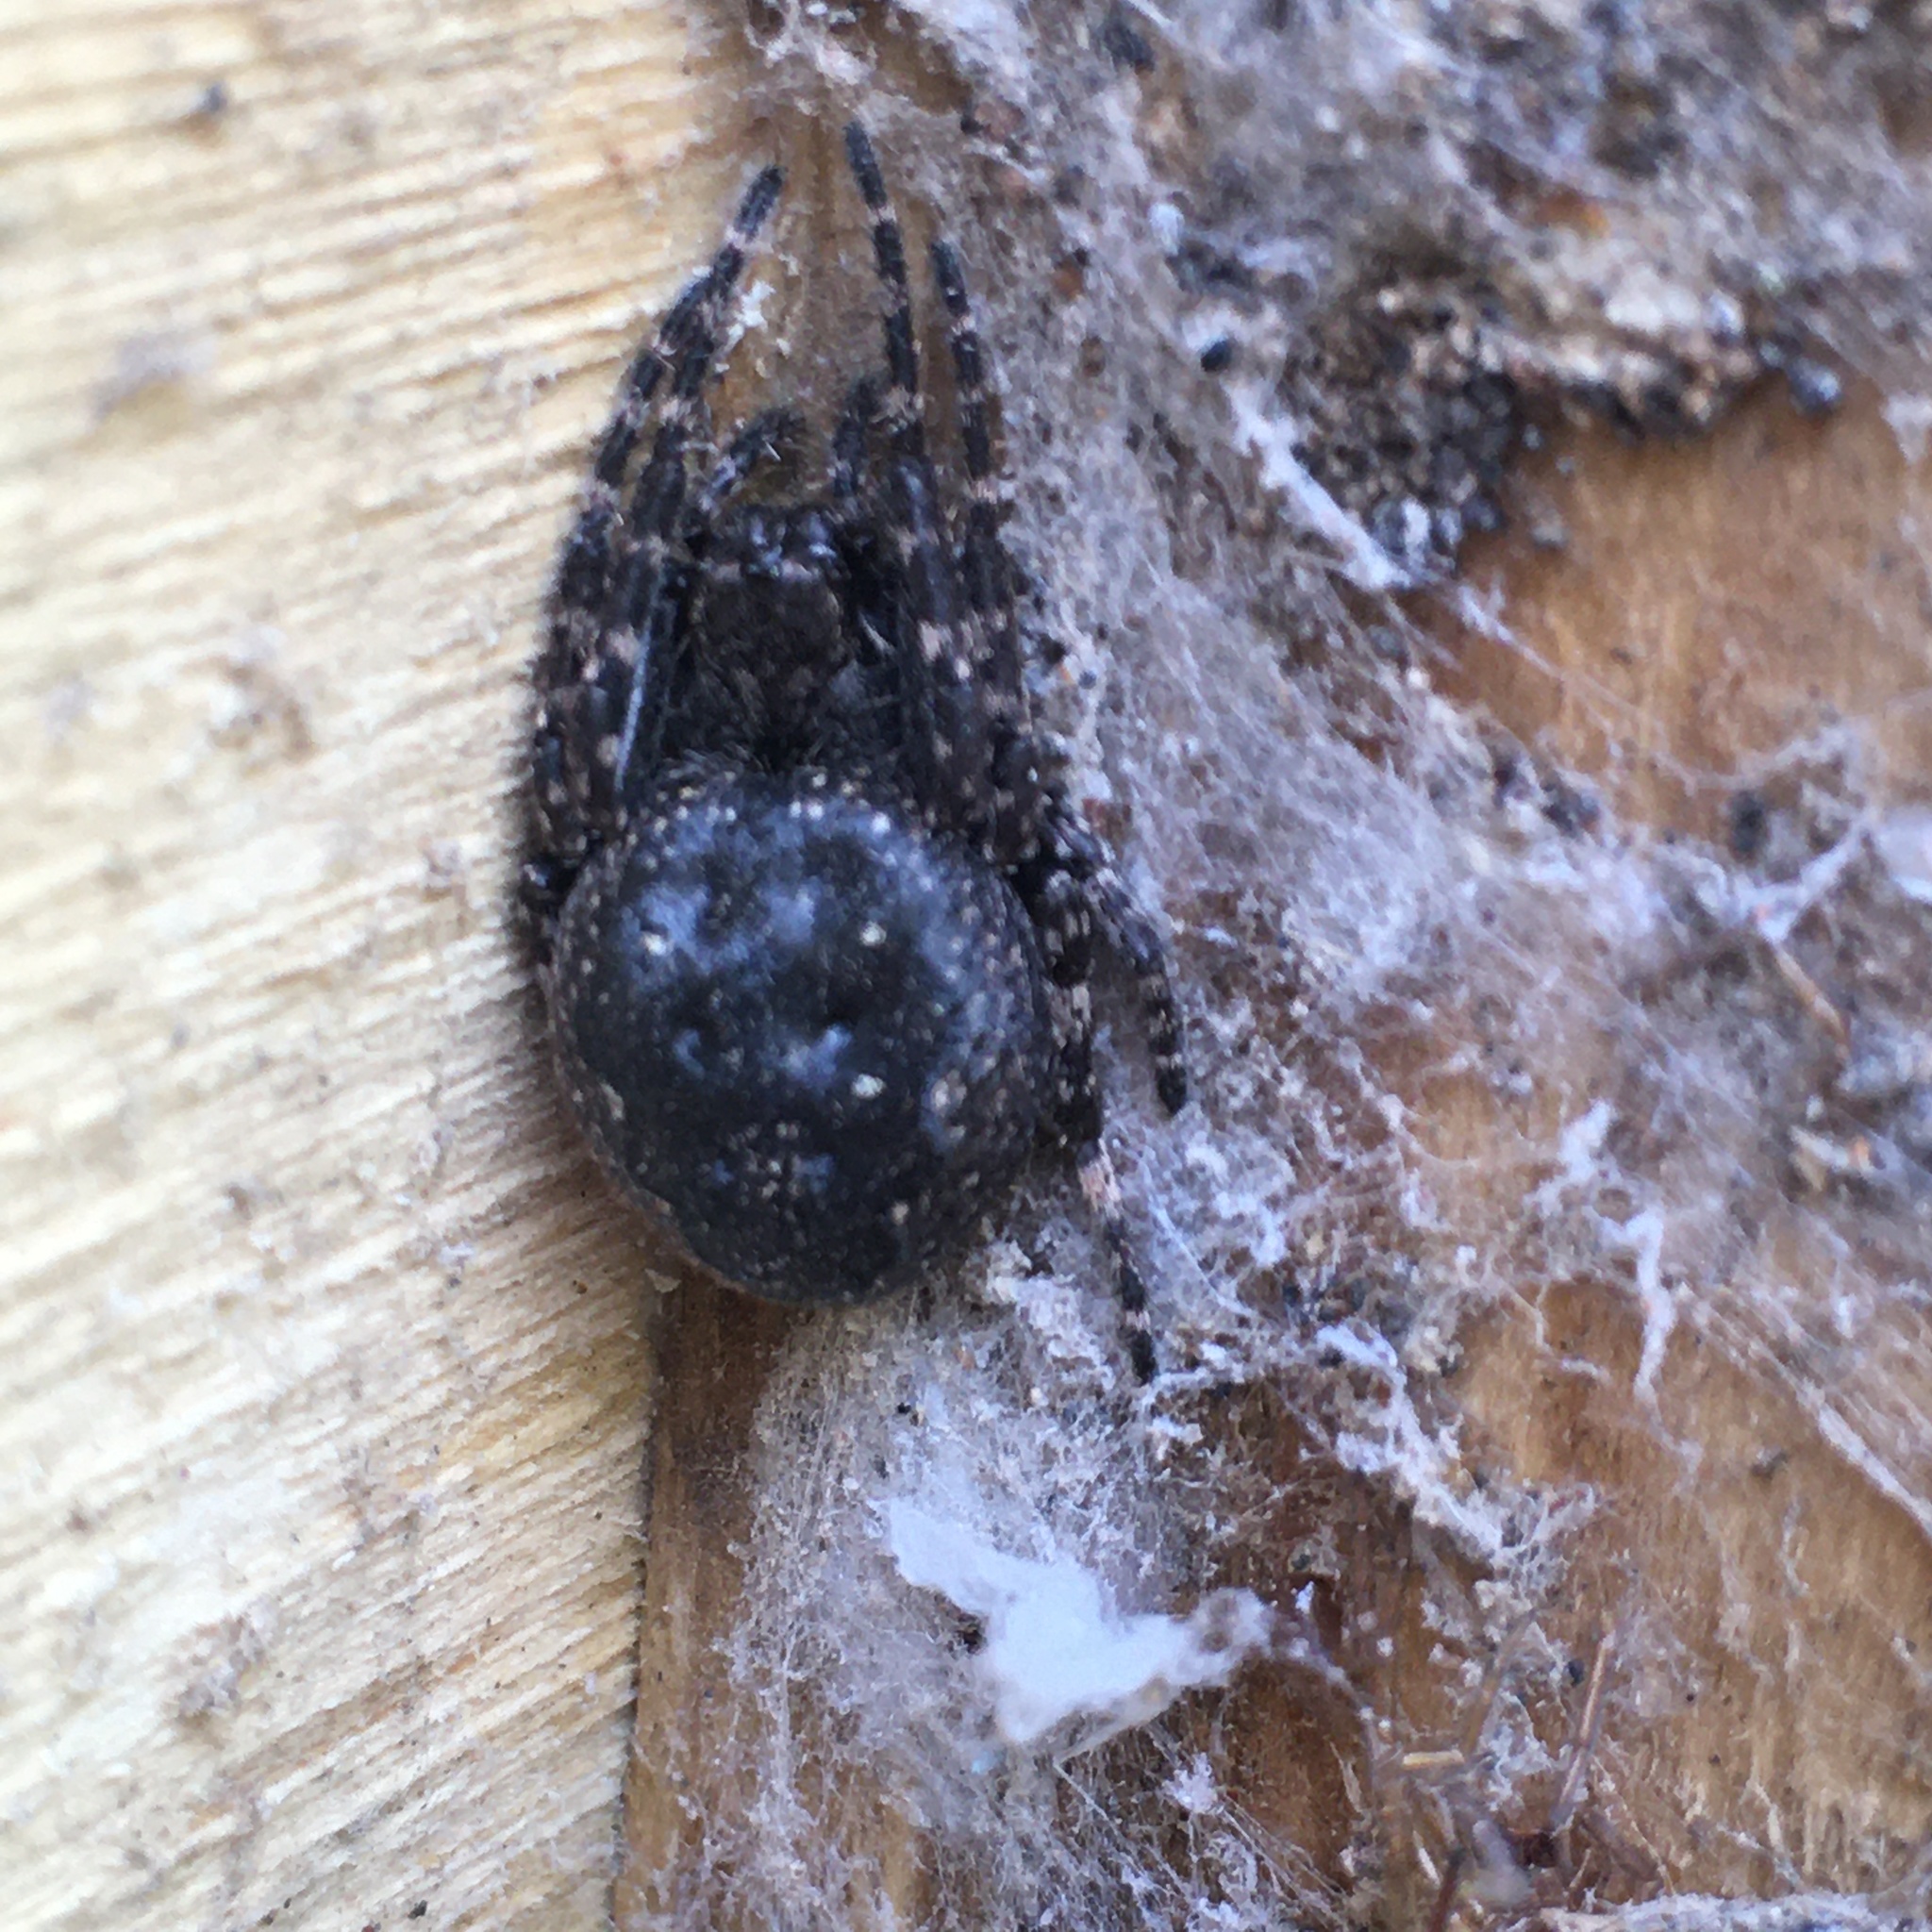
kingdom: Animalia
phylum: Arthropoda
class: Arachnida
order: Araneae
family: Araneidae
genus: Nuctenea
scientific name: Nuctenea umbratica
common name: Toad spider
